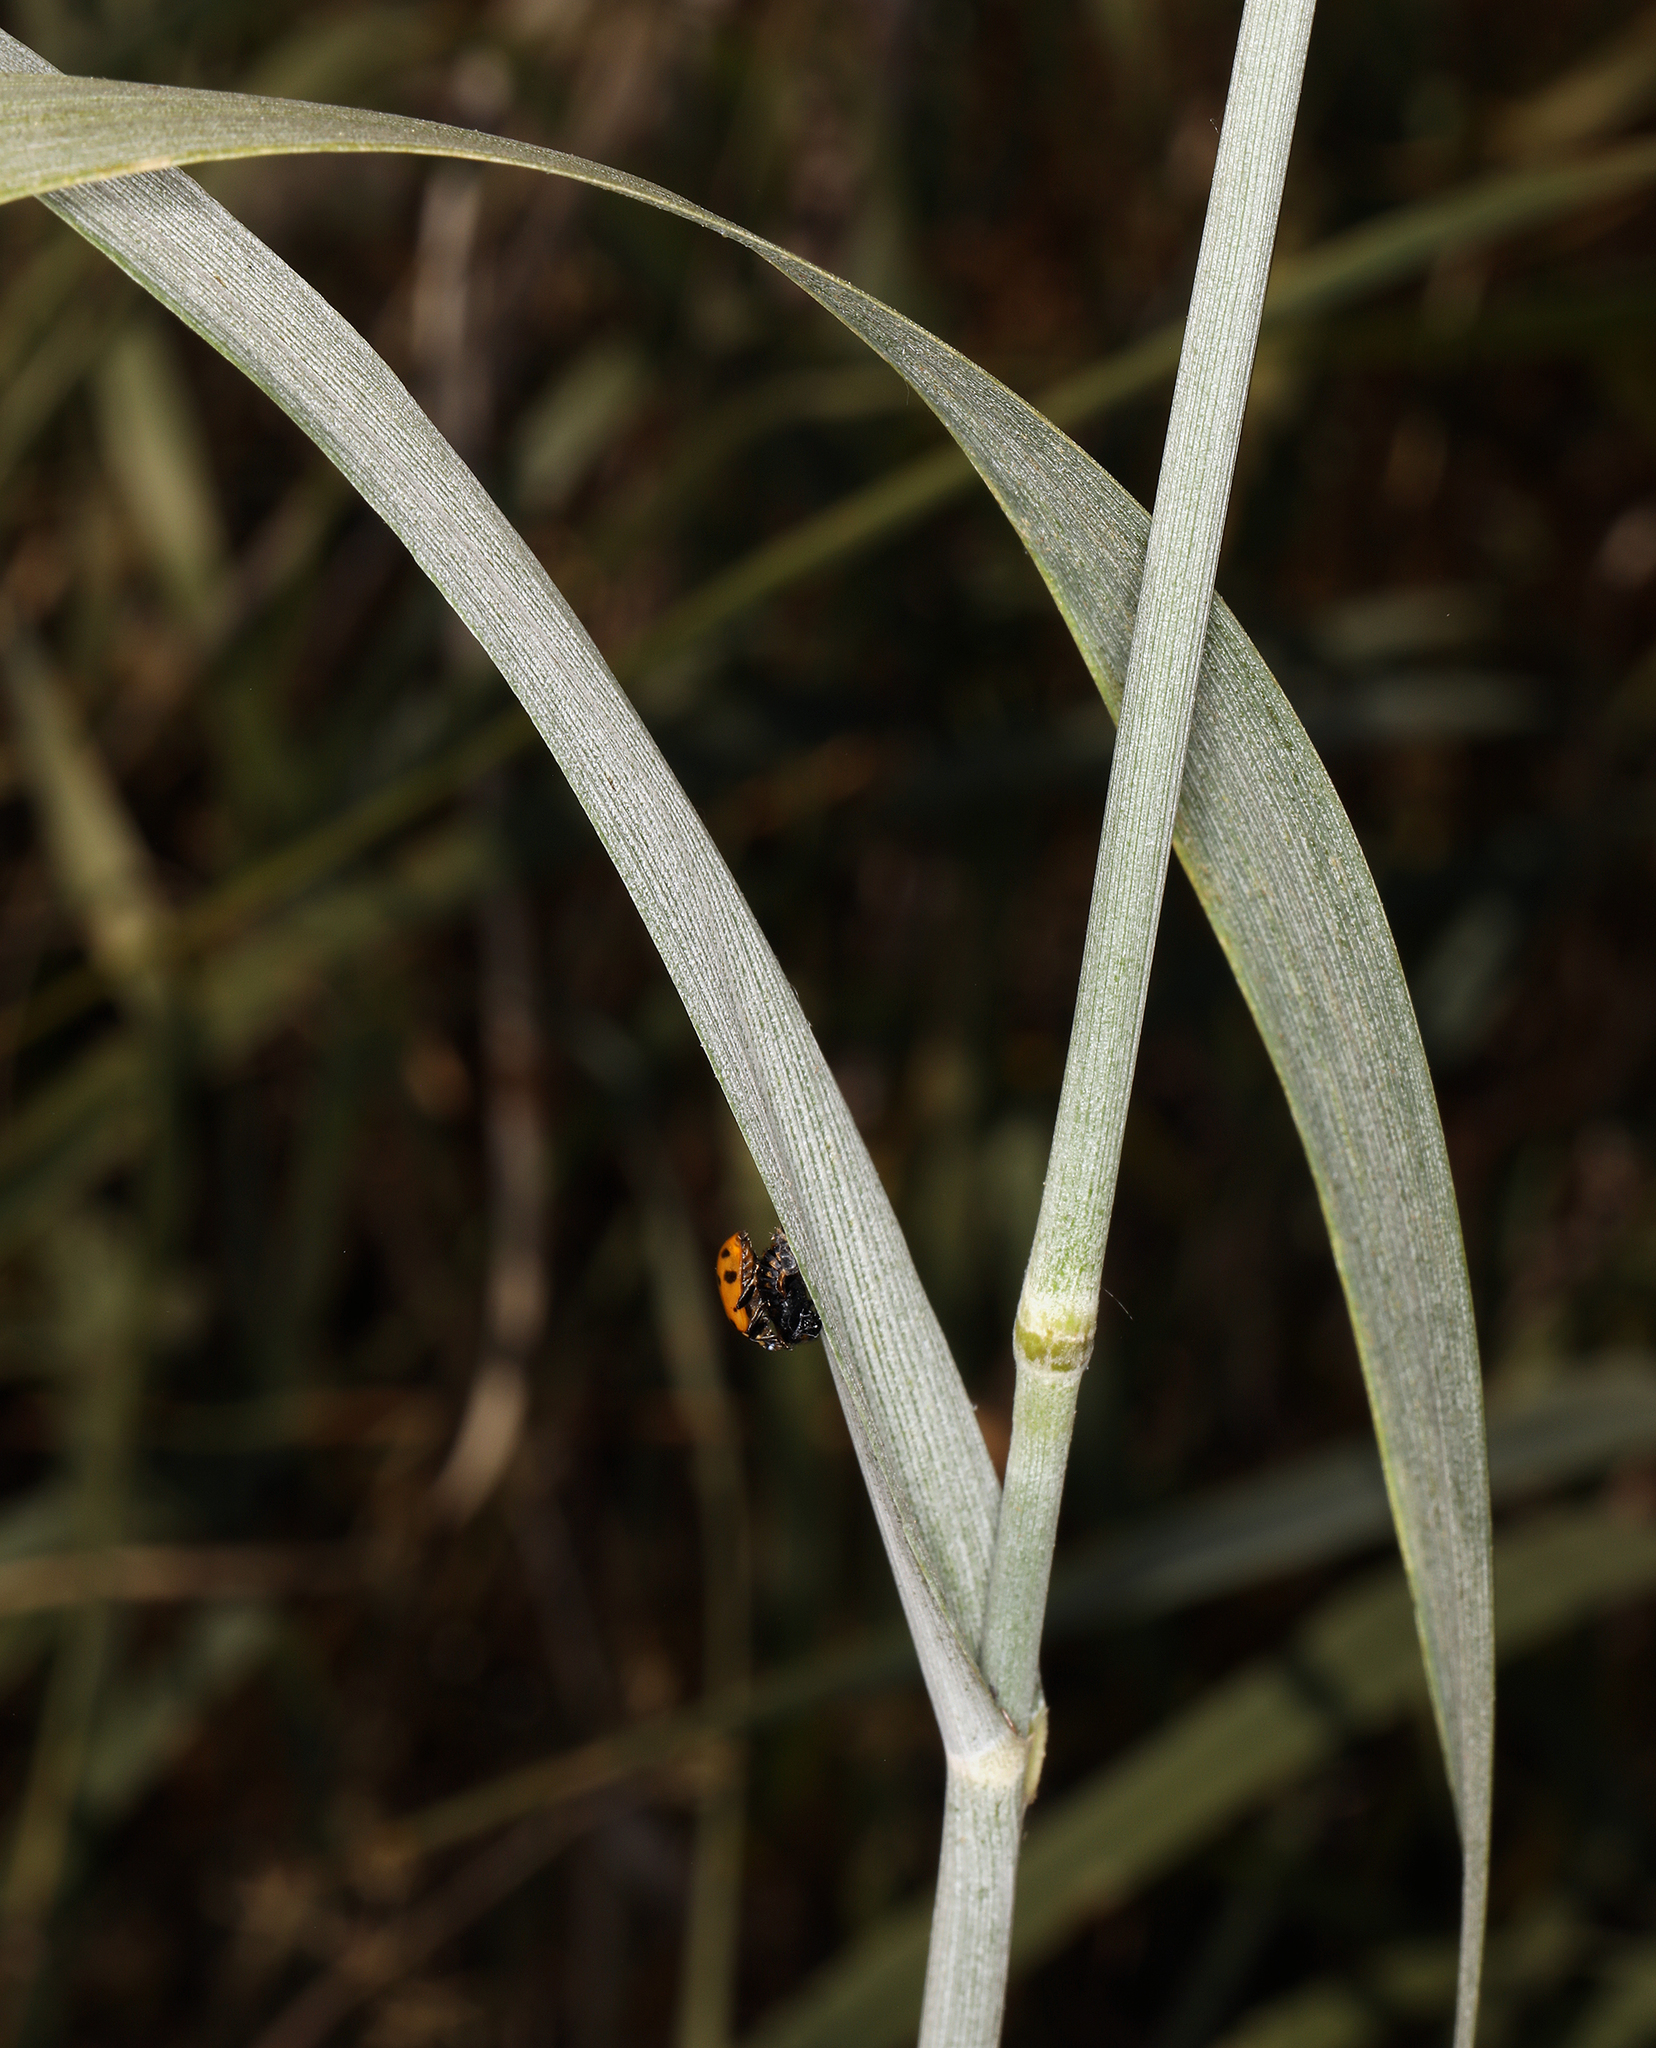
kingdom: Plantae
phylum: Tracheophyta
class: Liliopsida
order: Poales
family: Poaceae
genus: Leymus
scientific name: Leymus cinereus
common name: Basin wild rye
